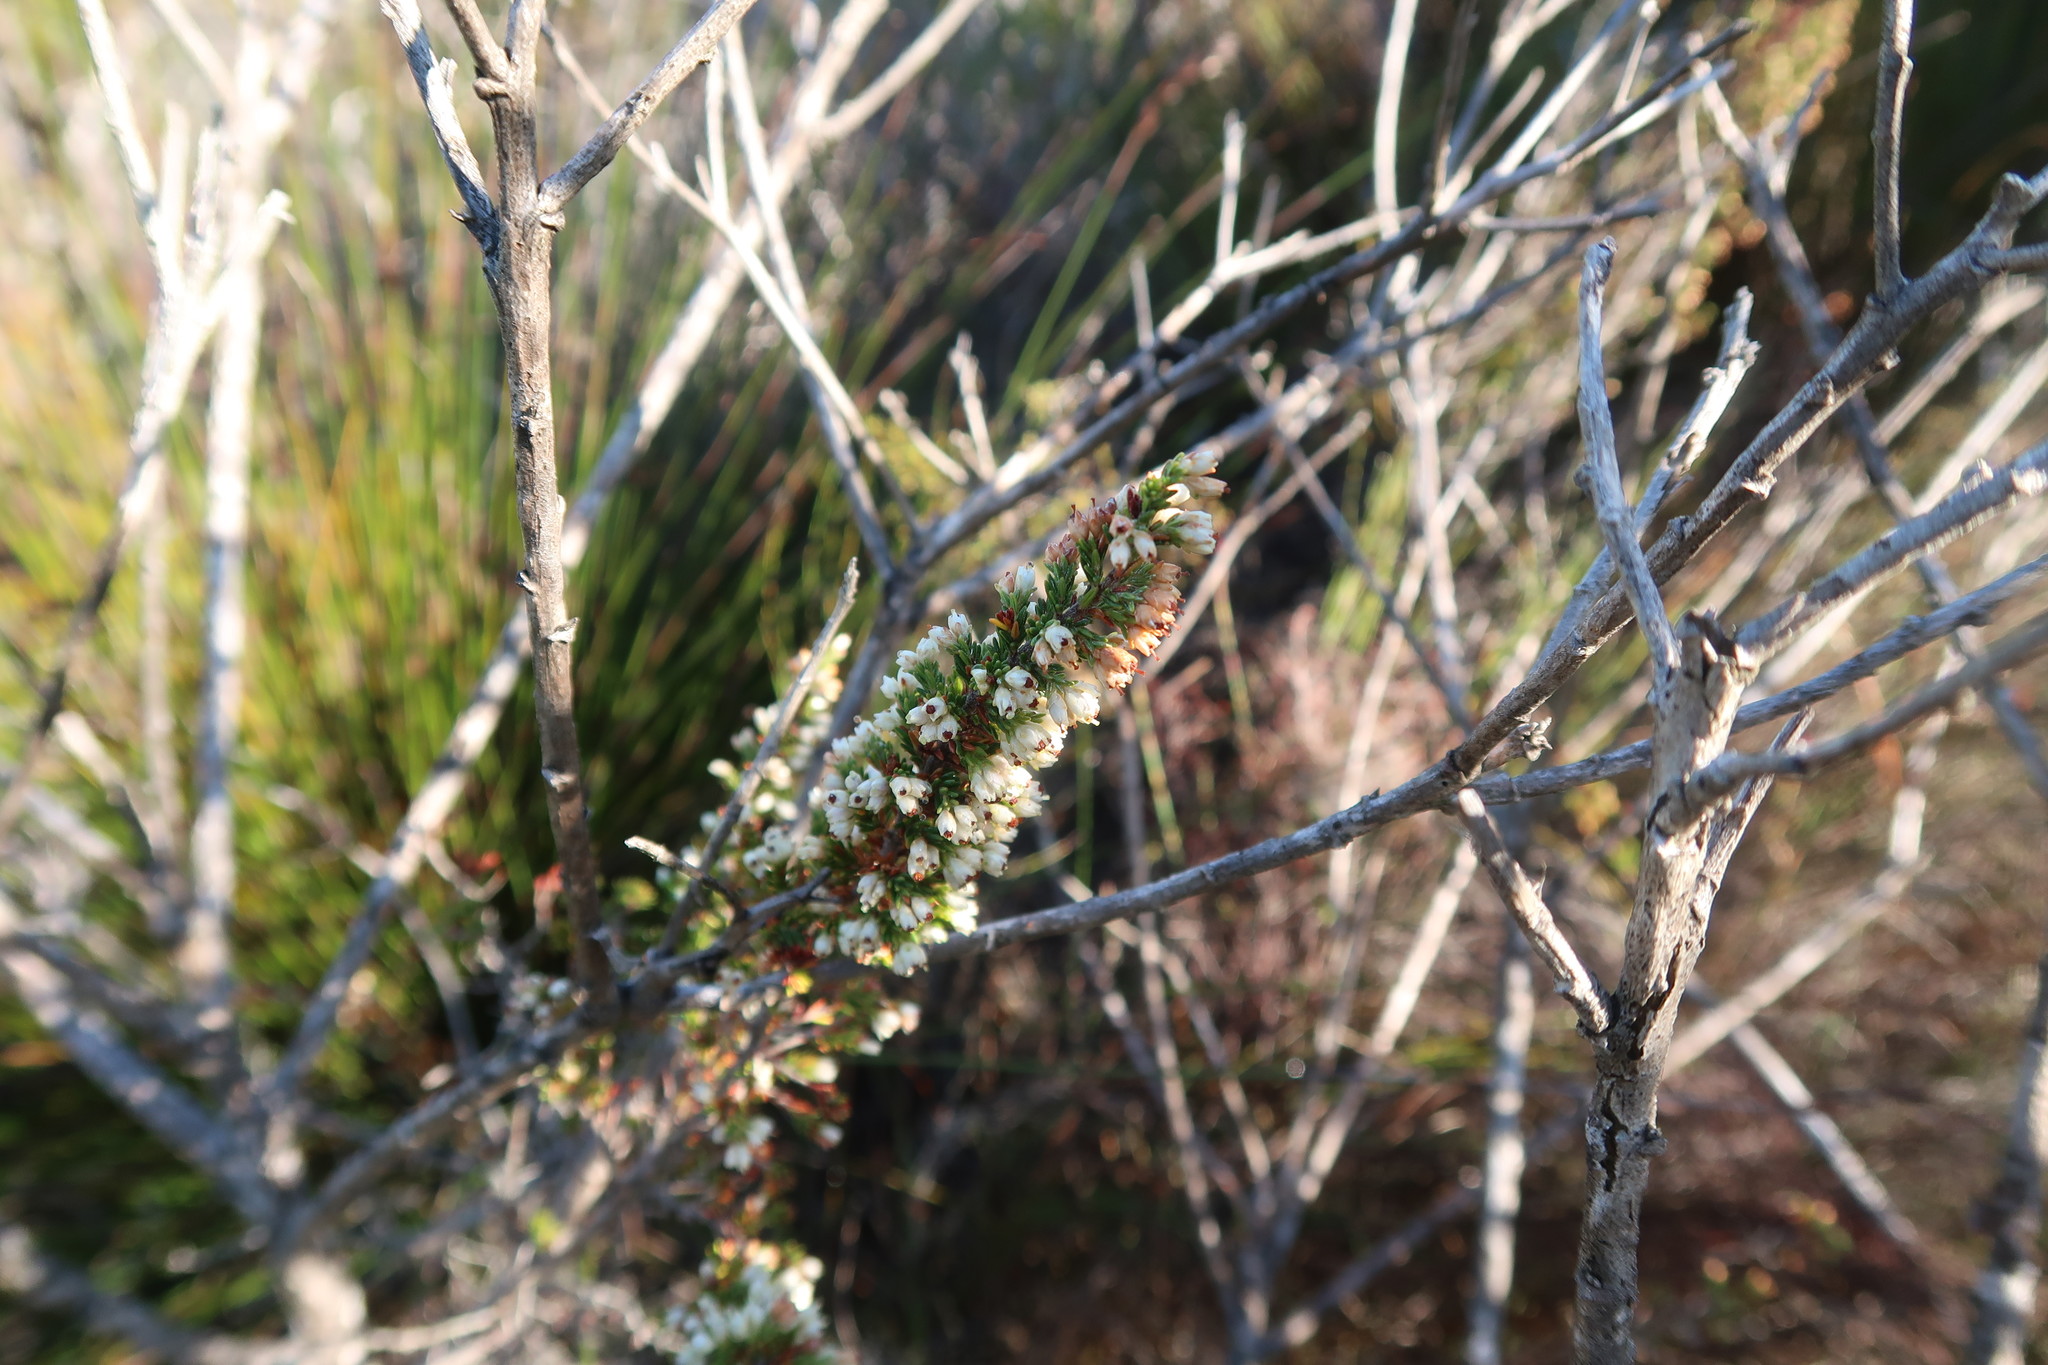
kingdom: Plantae
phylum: Tracheophyta
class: Magnoliopsida
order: Ericales
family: Ericaceae
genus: Erica
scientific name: Erica lasciva
